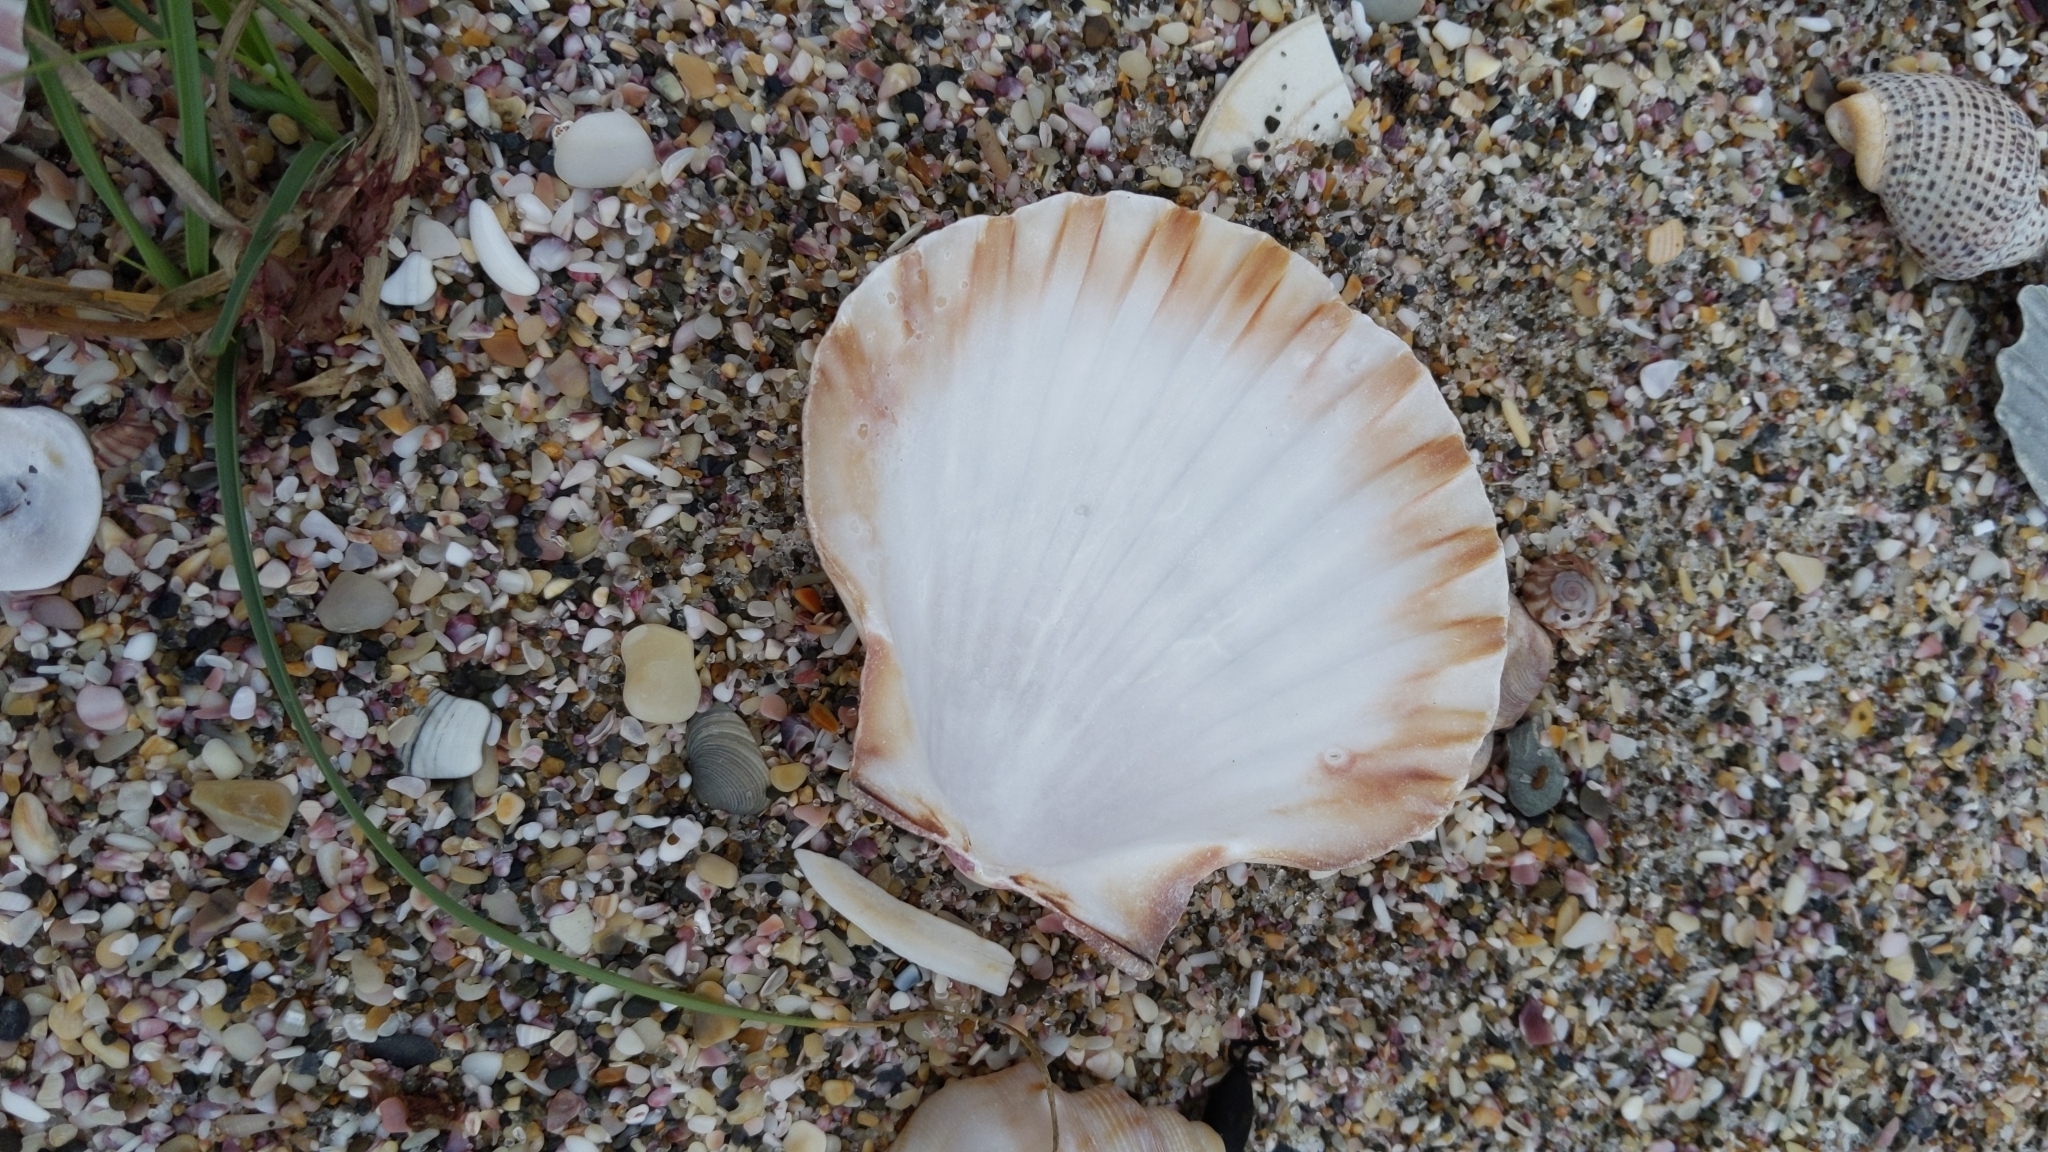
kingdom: Animalia
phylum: Mollusca
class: Bivalvia
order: Pectinida
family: Pectinidae
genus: Pecten
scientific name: Pecten novaezelandiae
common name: New zealand scallop
